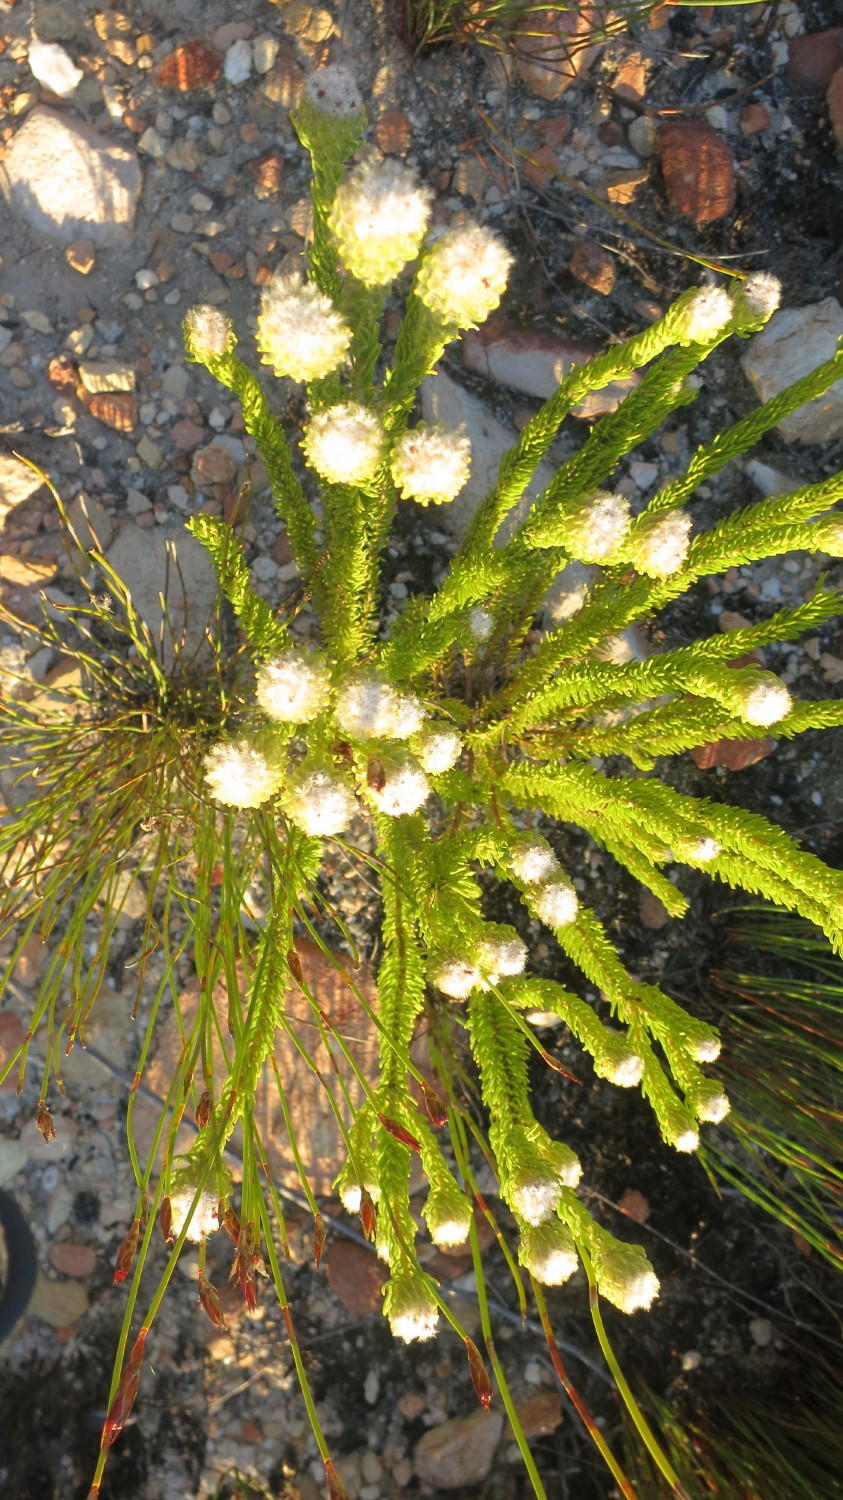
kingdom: Plantae
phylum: Tracheophyta
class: Magnoliopsida
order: Rosales
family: Rhamnaceae
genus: Phylica
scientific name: Phylica nigromontana
